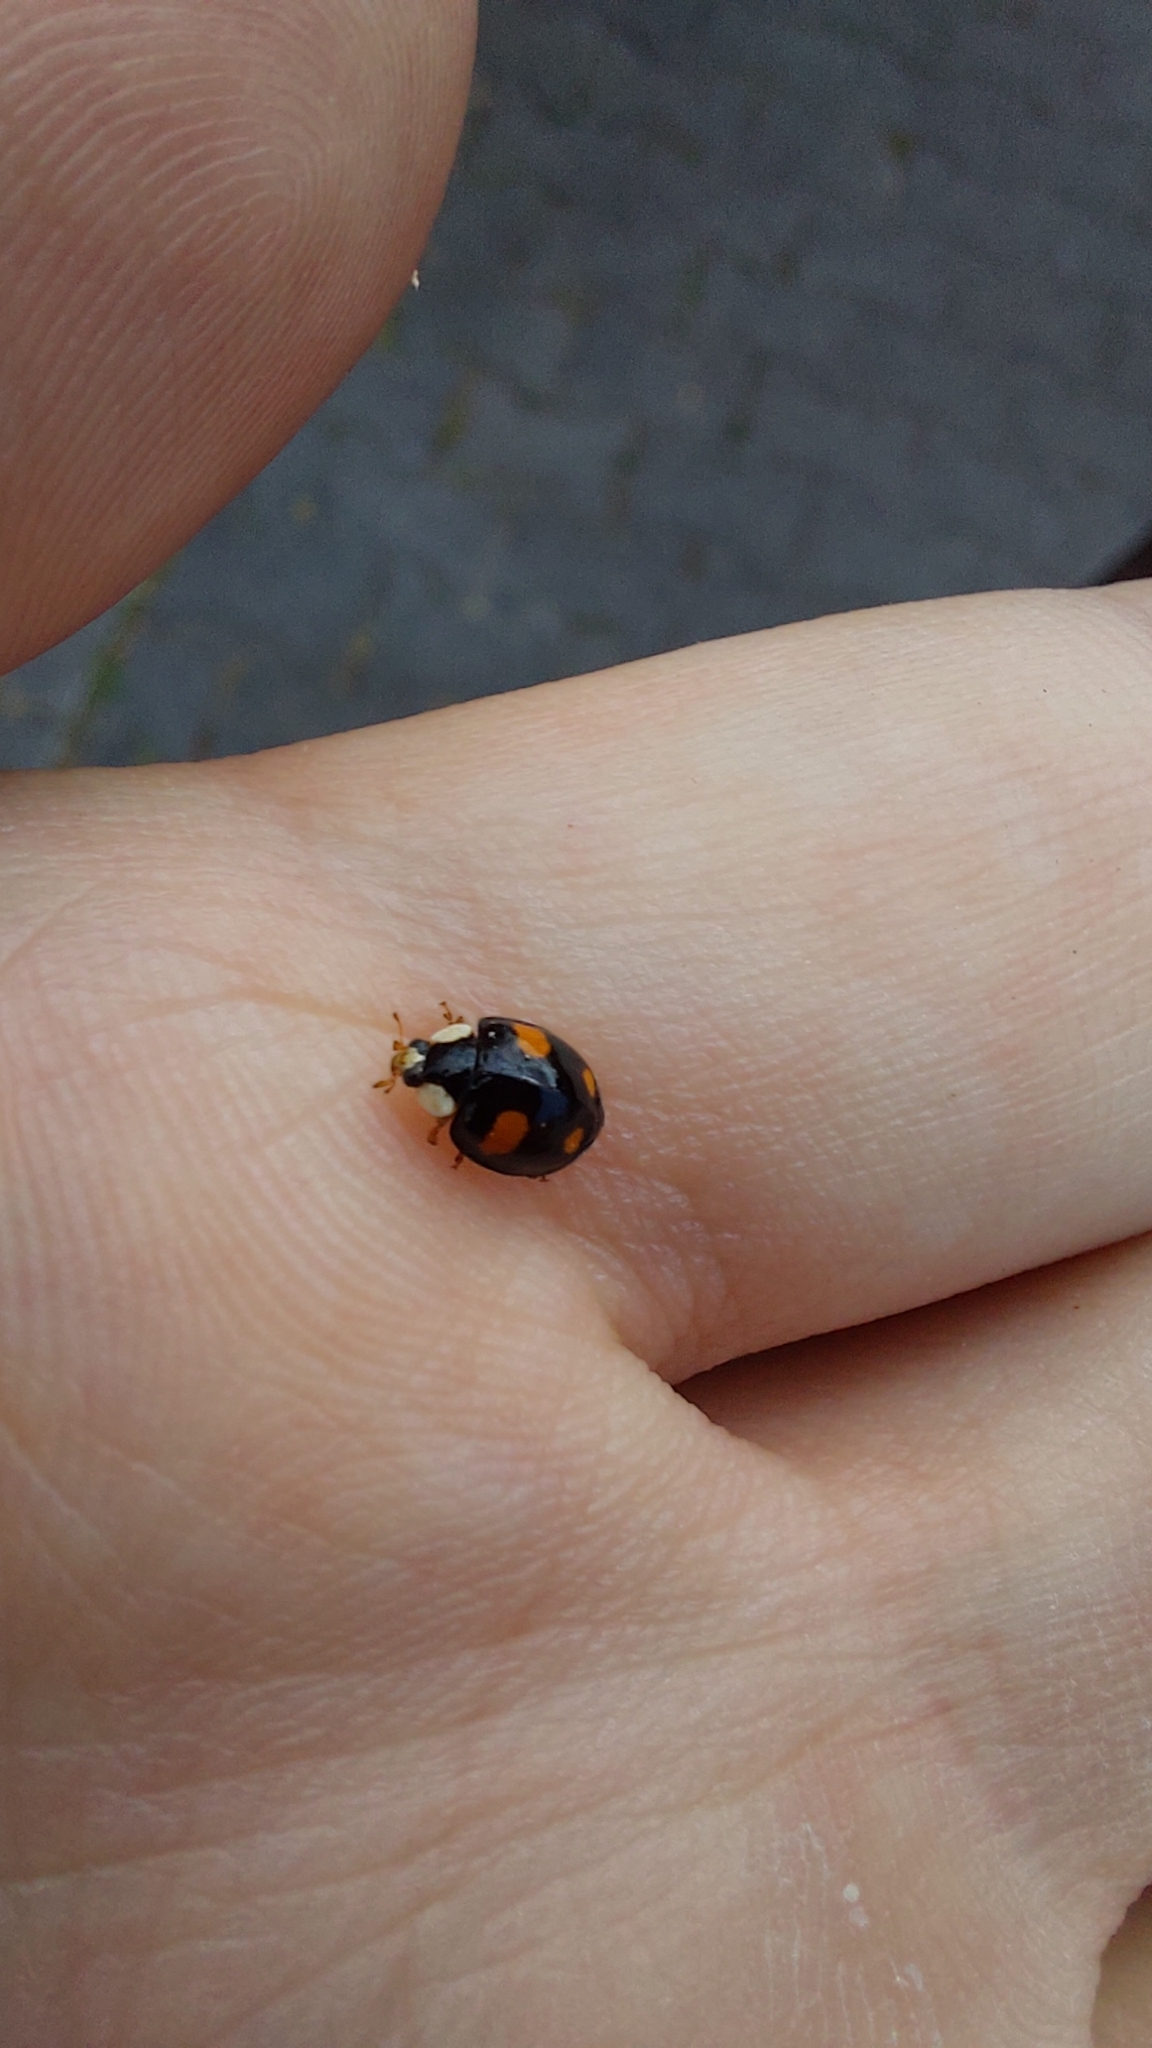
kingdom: Animalia
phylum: Arthropoda
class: Insecta
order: Coleoptera
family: Coccinellidae
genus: Harmonia
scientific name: Harmonia axyridis
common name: Harlequin ladybird
